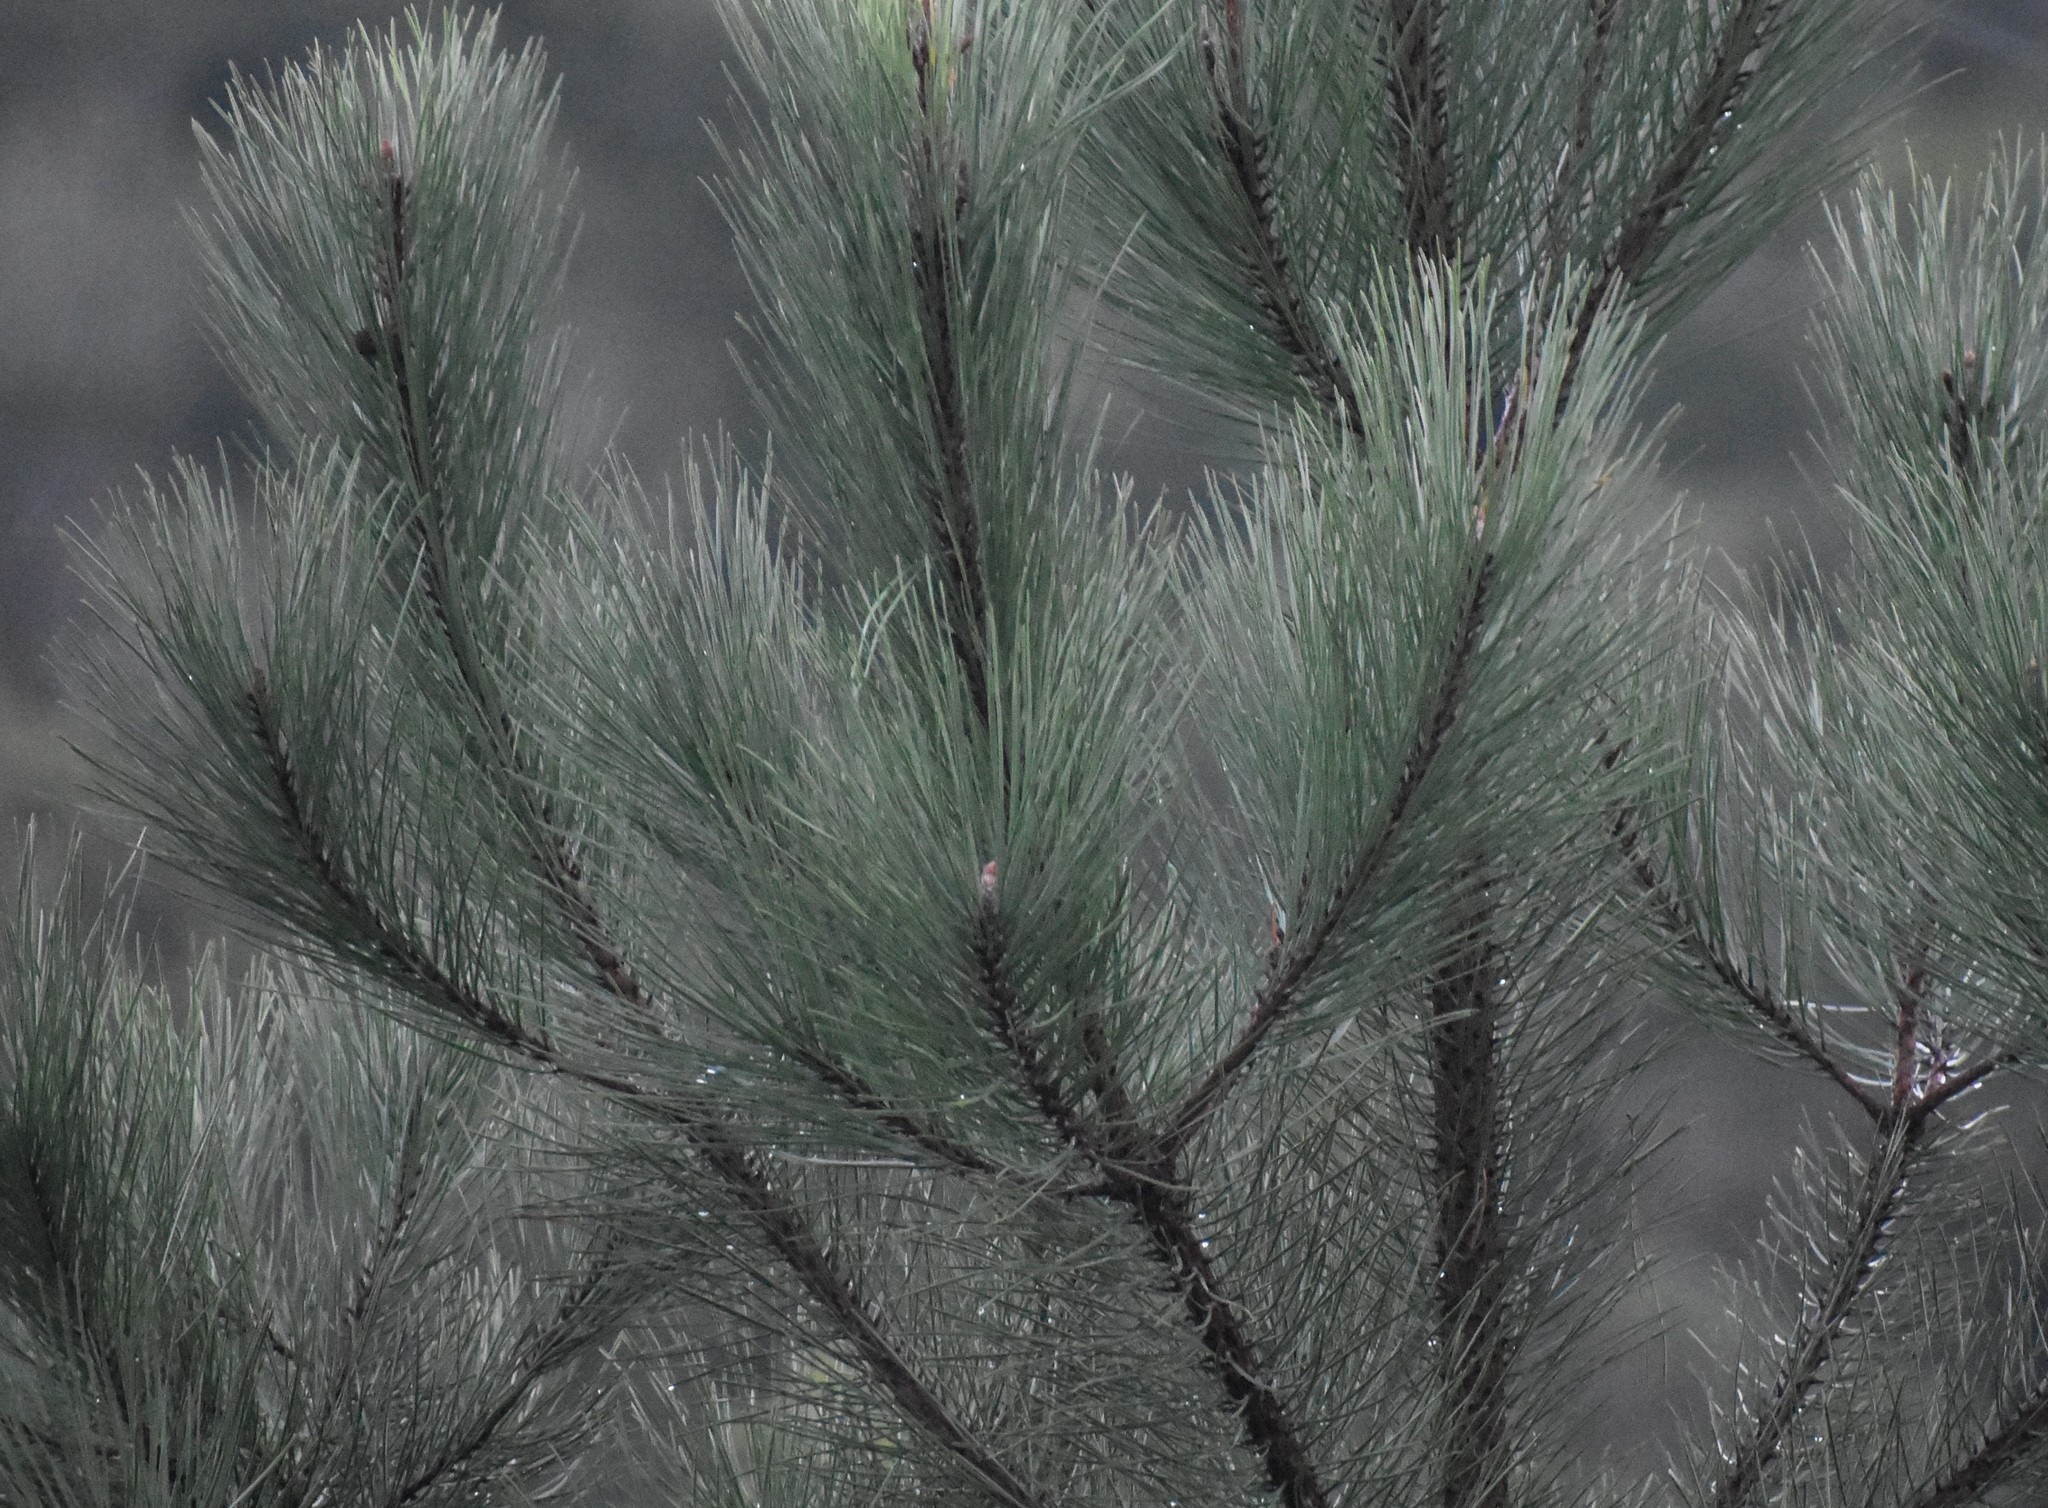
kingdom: Plantae
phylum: Tracheophyta
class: Pinopsida
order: Pinales
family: Pinaceae
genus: Pinus
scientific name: Pinus pinaster
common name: Maritime pine
